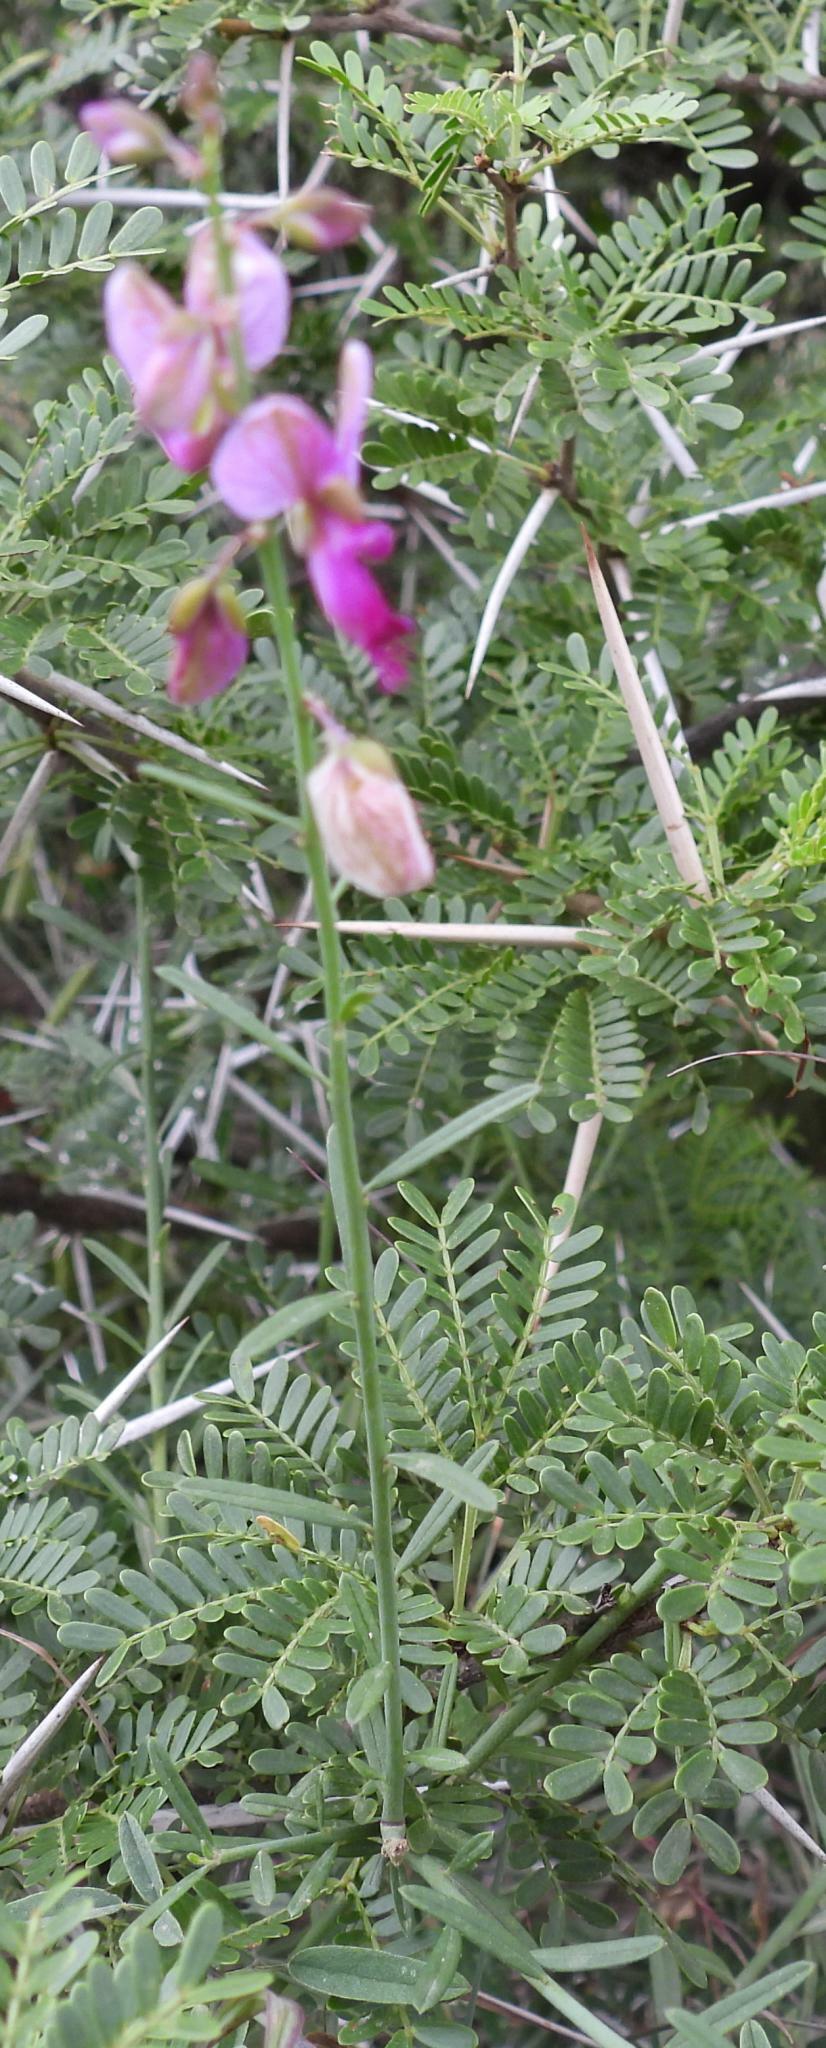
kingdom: Plantae
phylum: Tracheophyta
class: Magnoliopsida
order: Fabales
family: Polygalaceae
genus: Polygala
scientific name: Polygala virgata
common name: Milkwort
